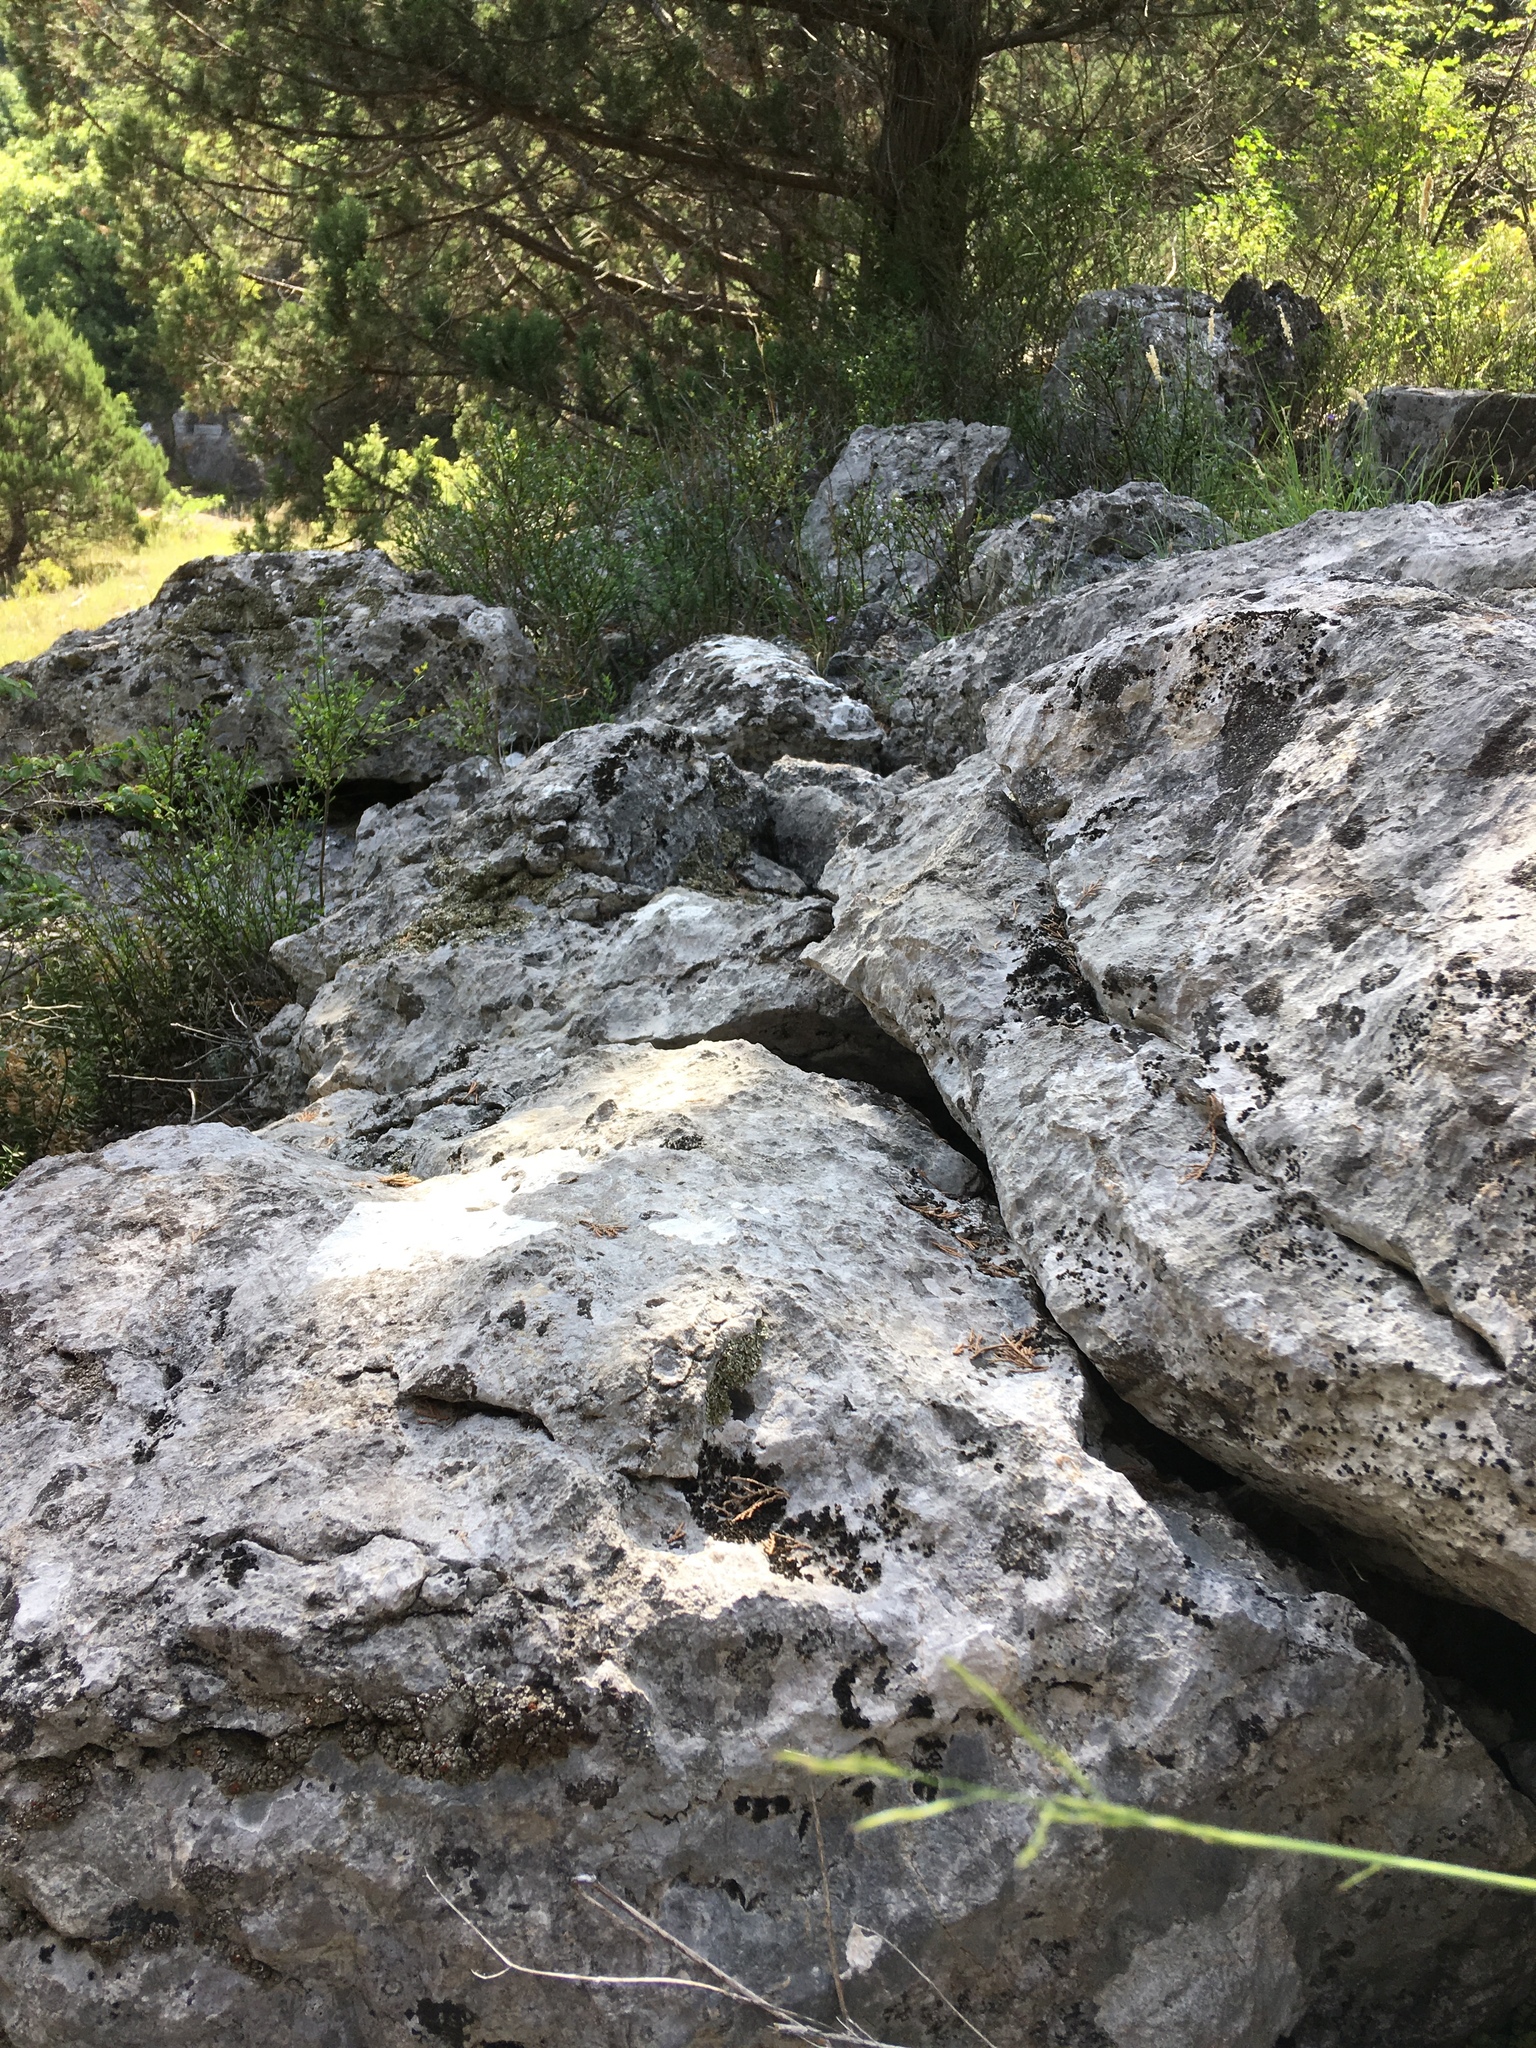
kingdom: Plantae
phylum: Tracheophyta
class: Polypodiopsida
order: Polypodiales
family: Aspleniaceae
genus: Asplenium
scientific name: Asplenium trichomanes
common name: Maidenhair spleenwort
